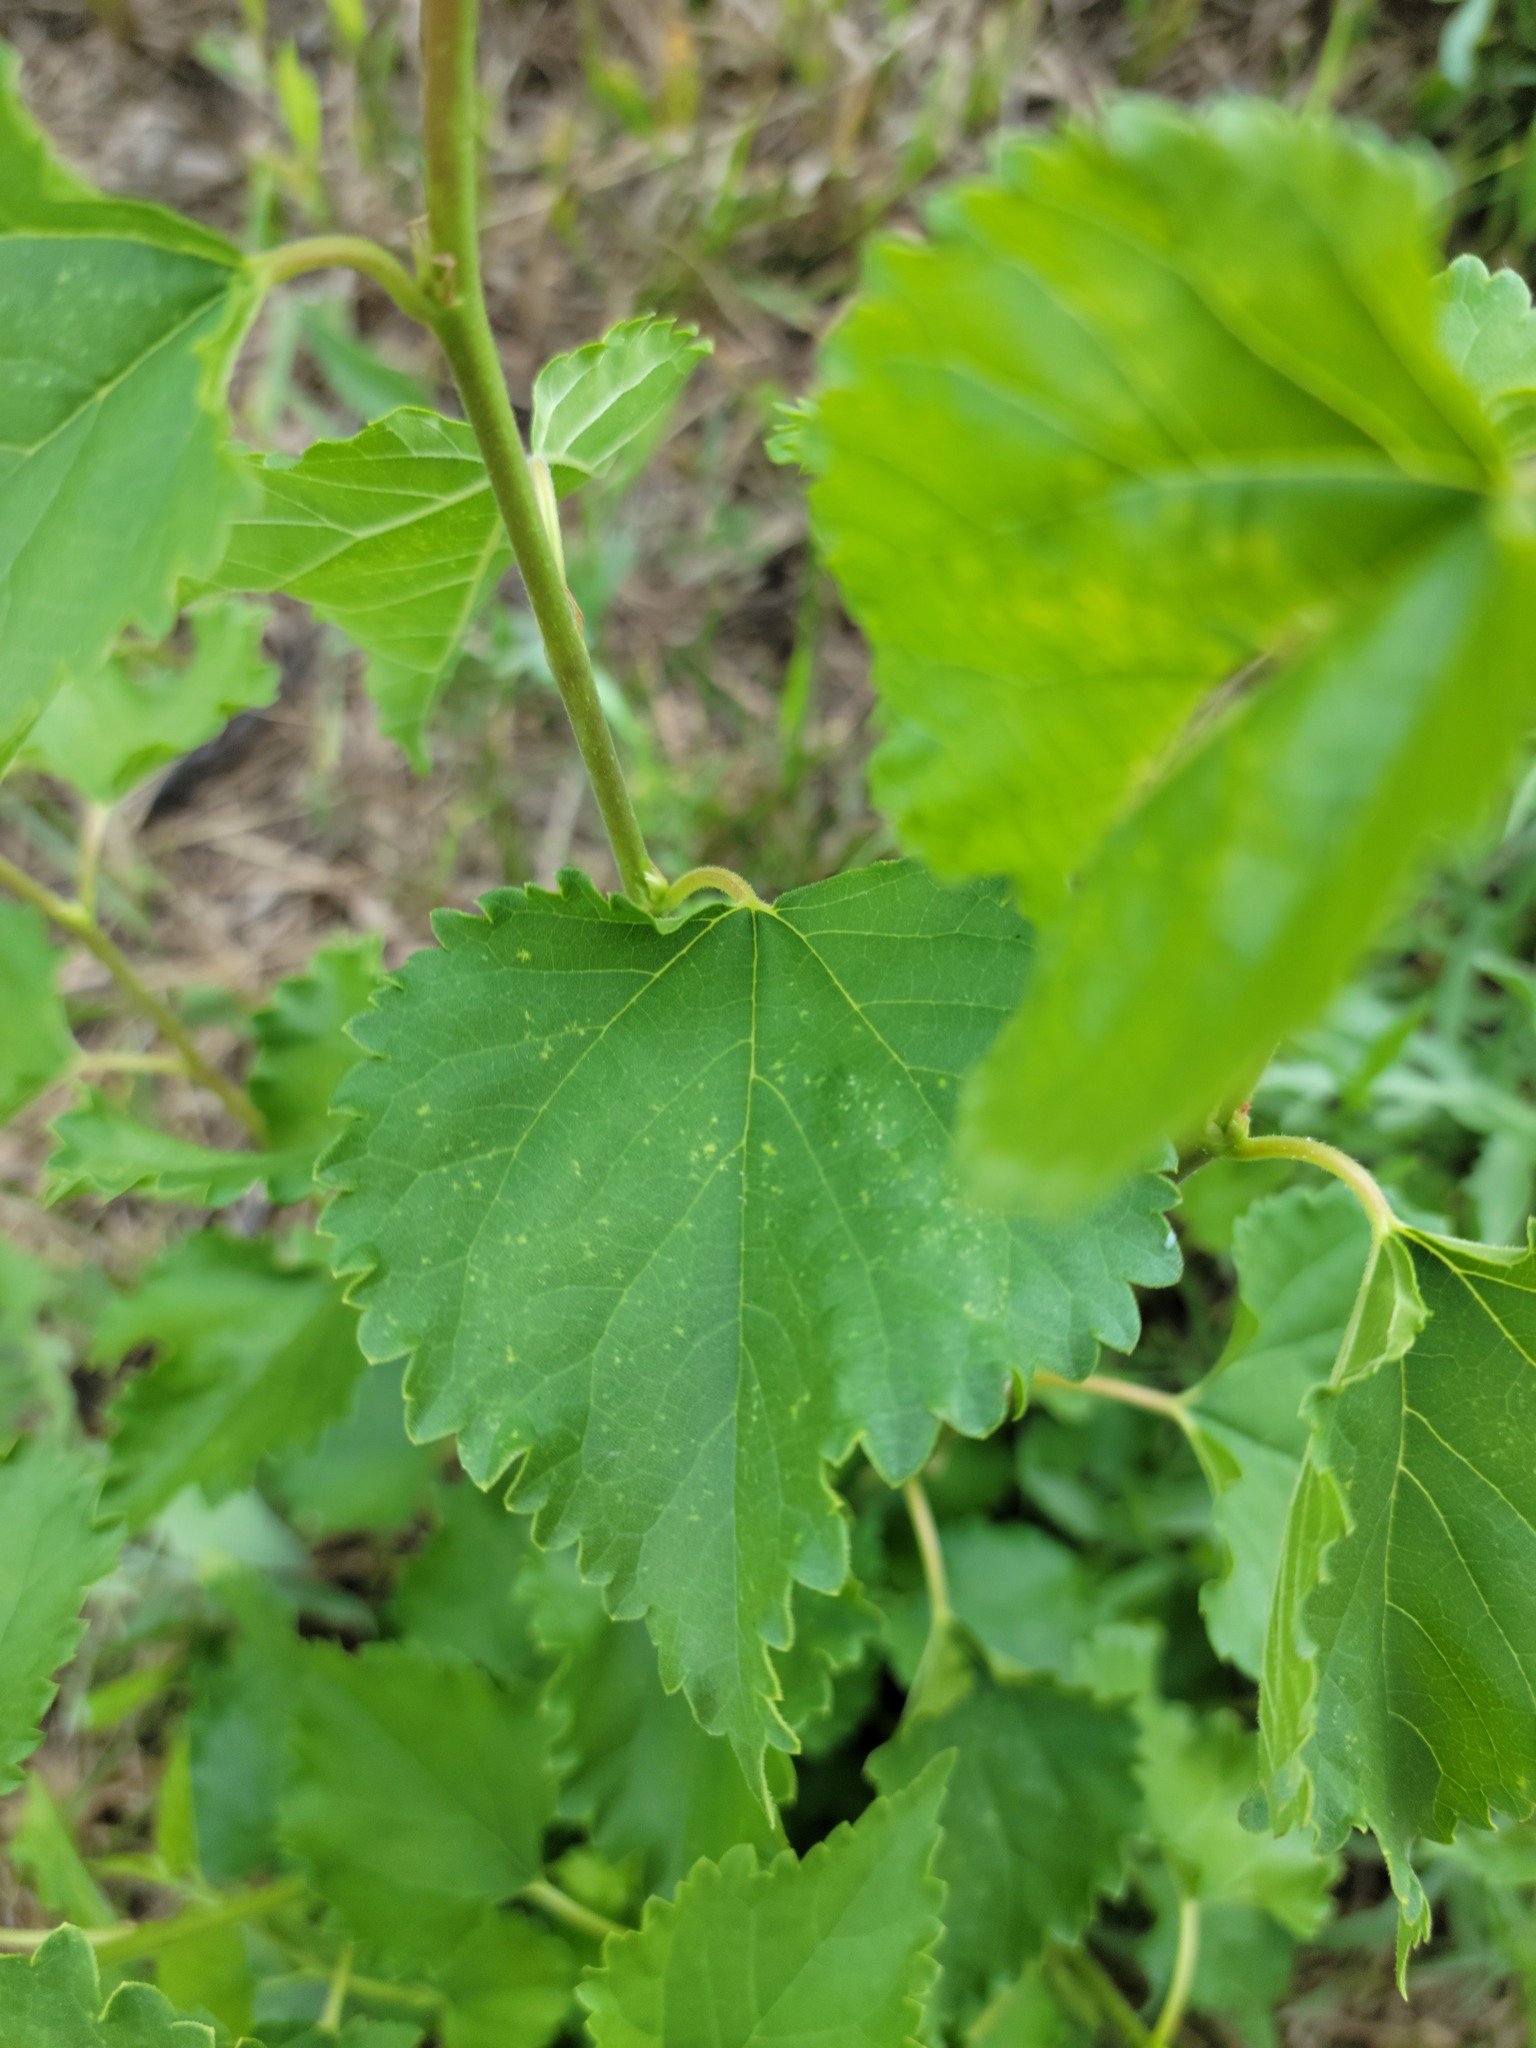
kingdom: Plantae
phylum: Tracheophyta
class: Magnoliopsida
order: Rosales
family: Moraceae
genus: Morus
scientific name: Morus alba
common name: White mulberry
